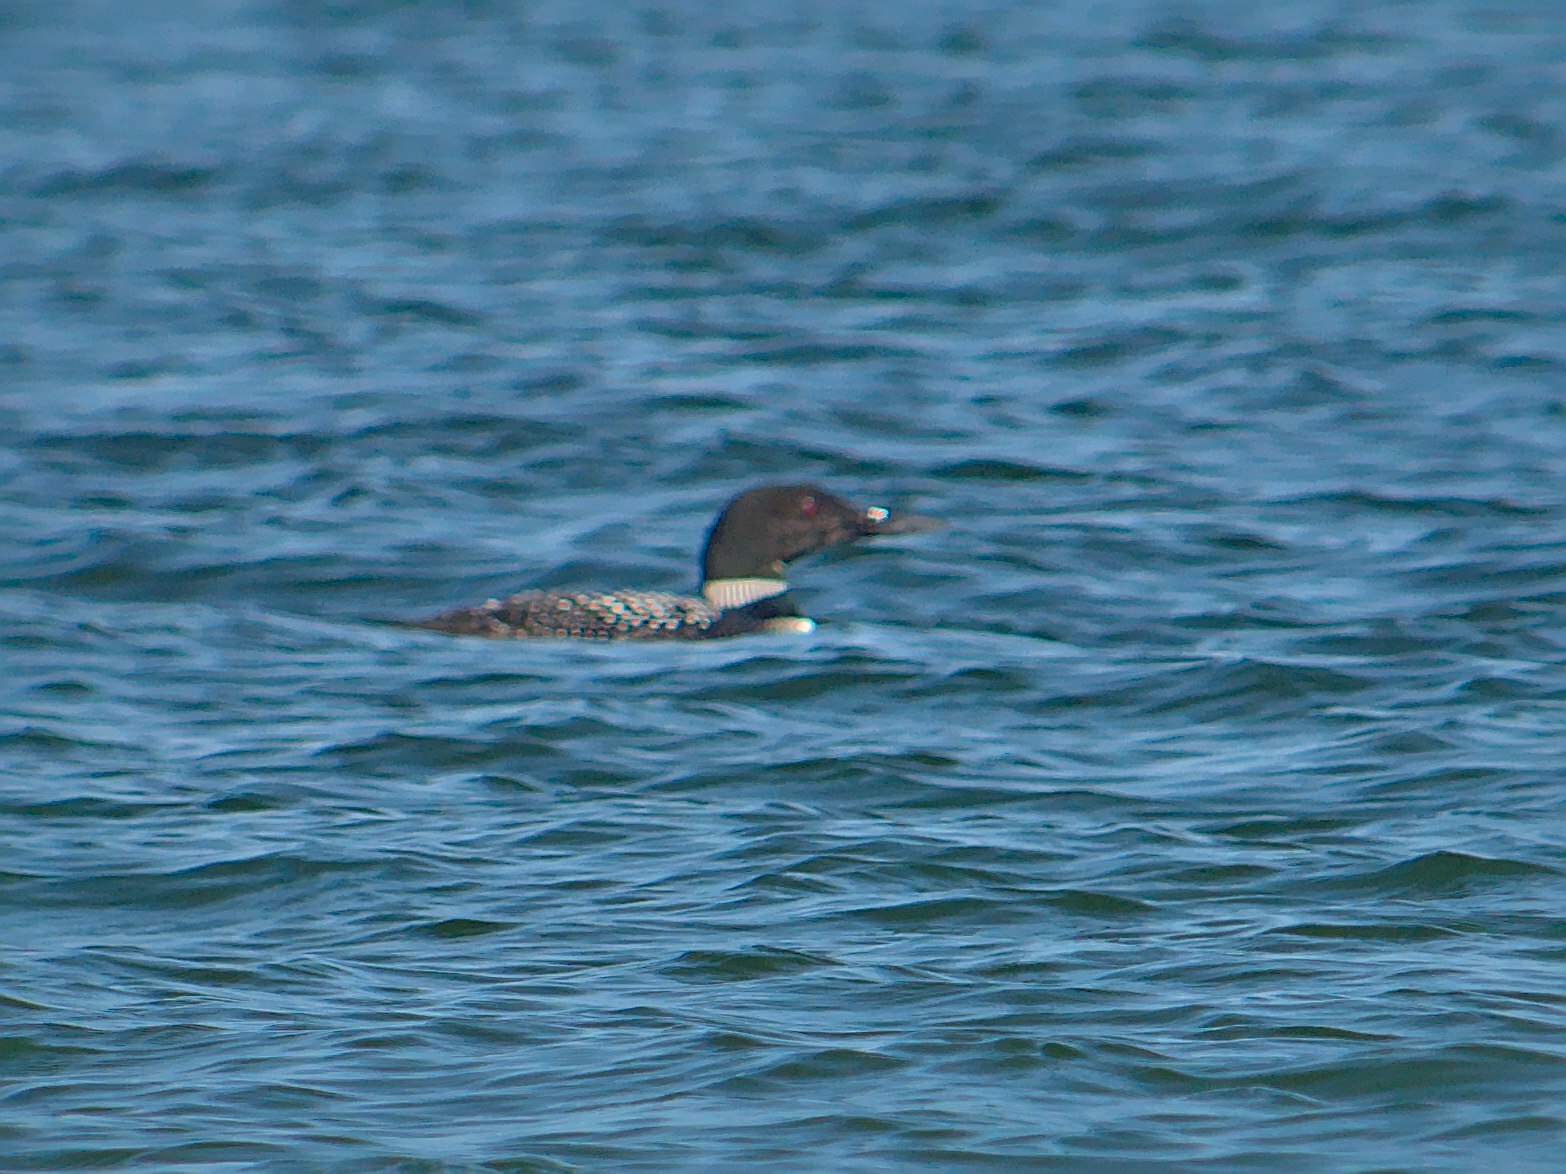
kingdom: Animalia
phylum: Chordata
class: Aves
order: Gaviiformes
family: Gaviidae
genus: Gavia
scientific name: Gavia immer
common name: Common loon
